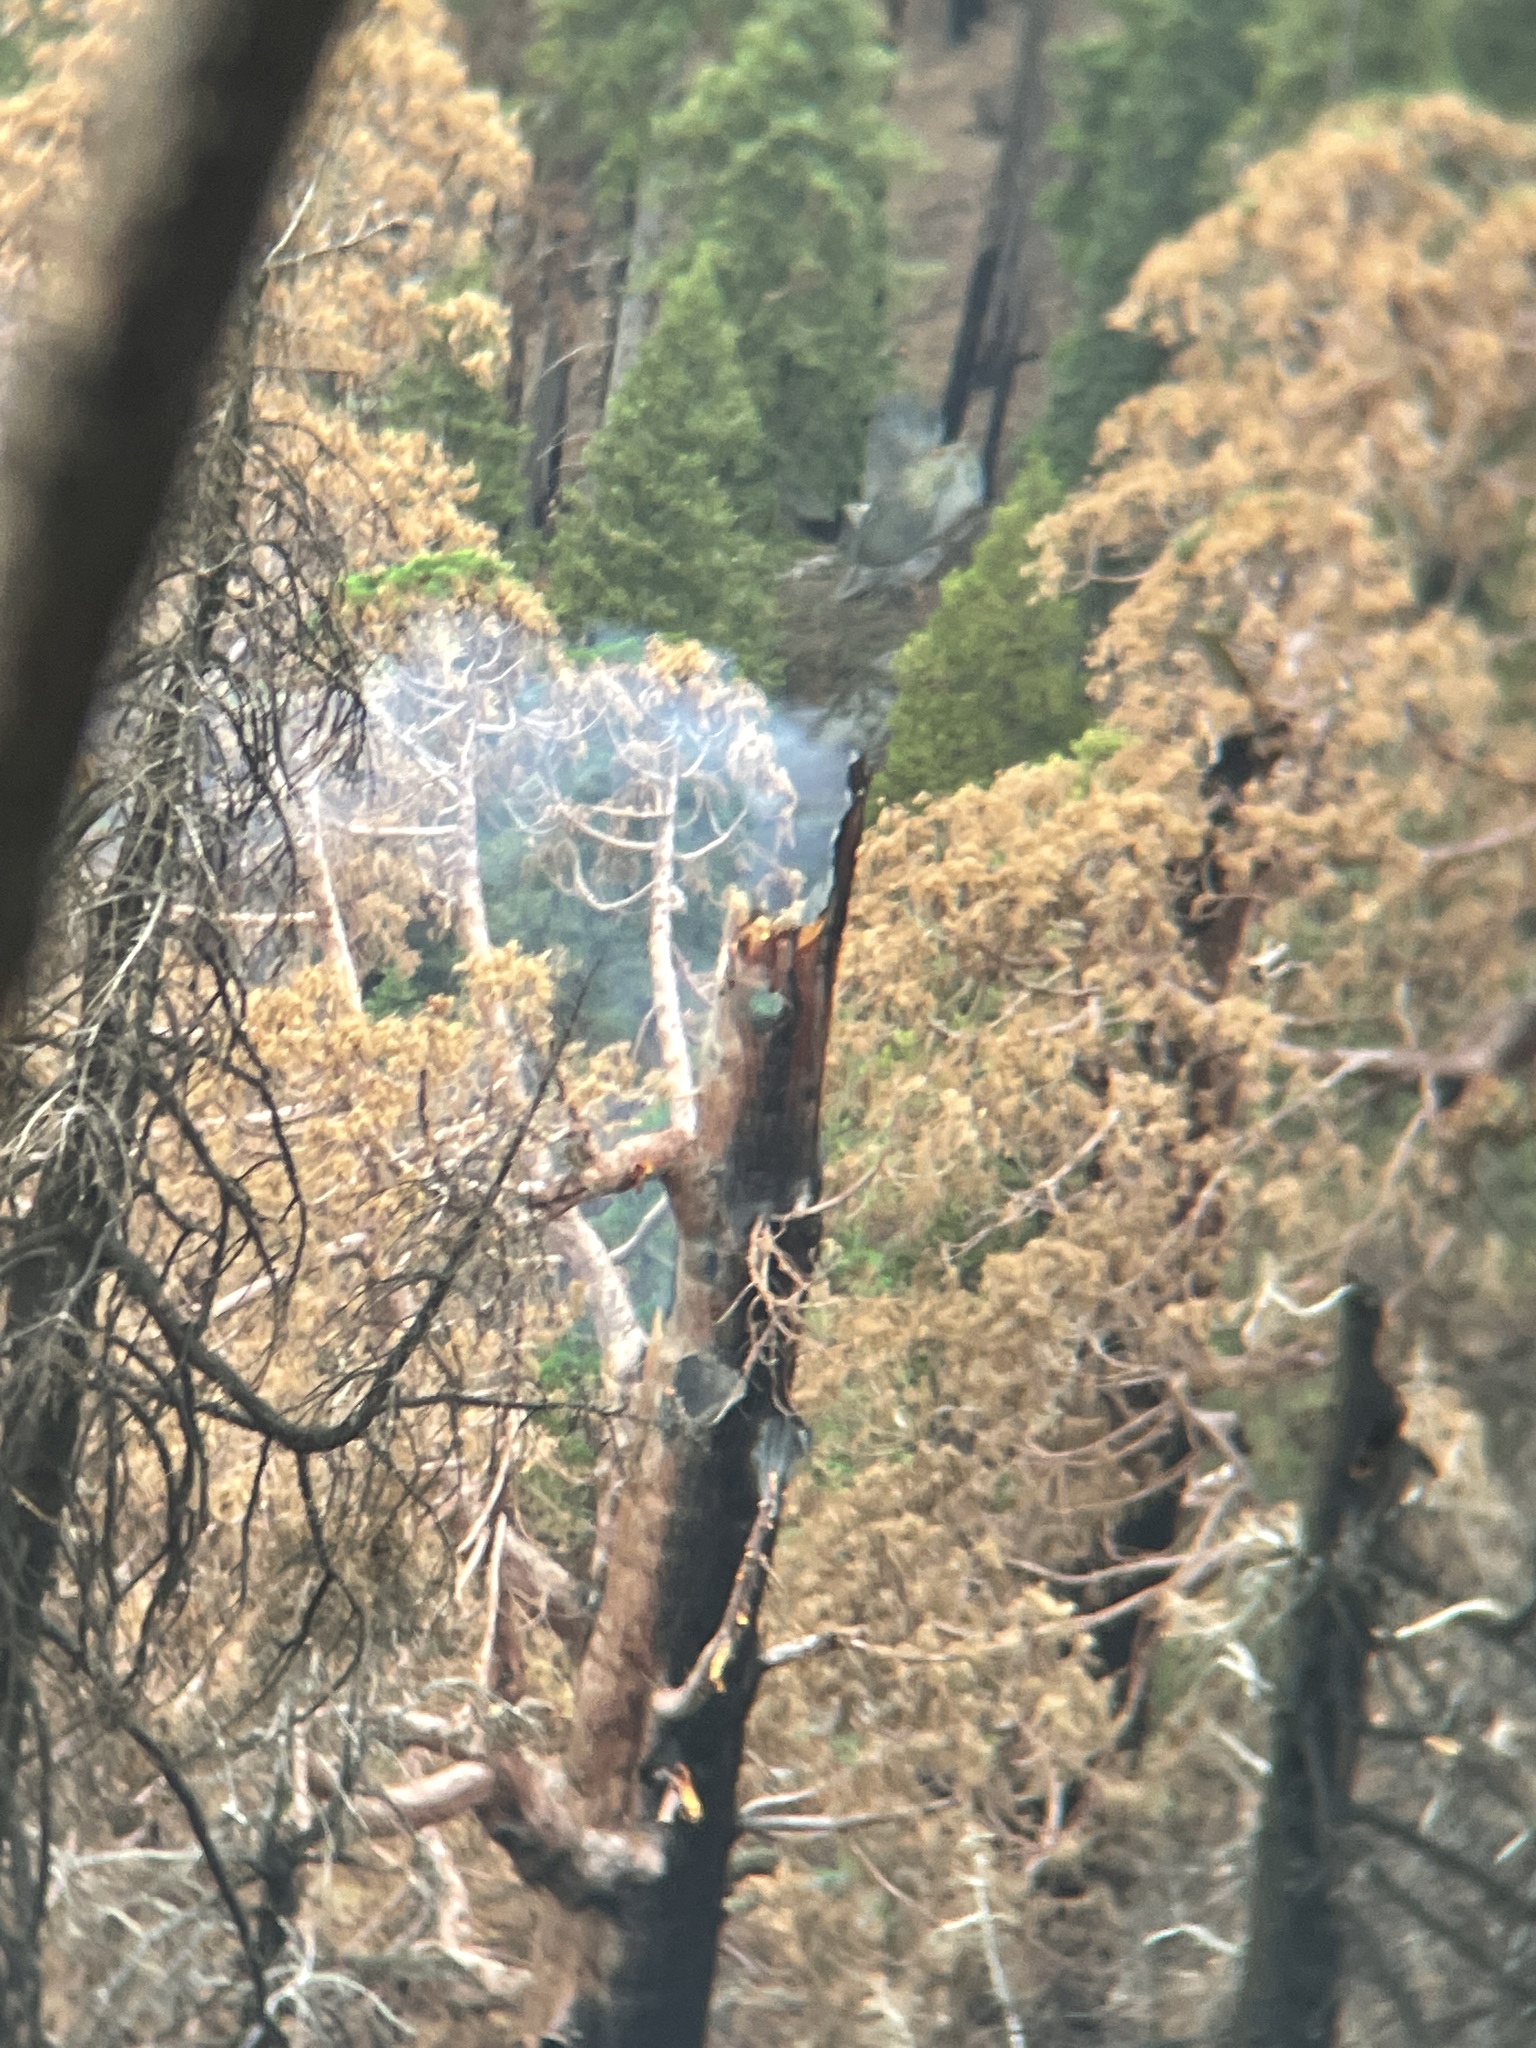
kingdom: Plantae
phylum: Tracheophyta
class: Pinopsida
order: Pinales
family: Cupressaceae
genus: Sequoiadendron
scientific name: Sequoiadendron giganteum
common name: Wellingtonia
